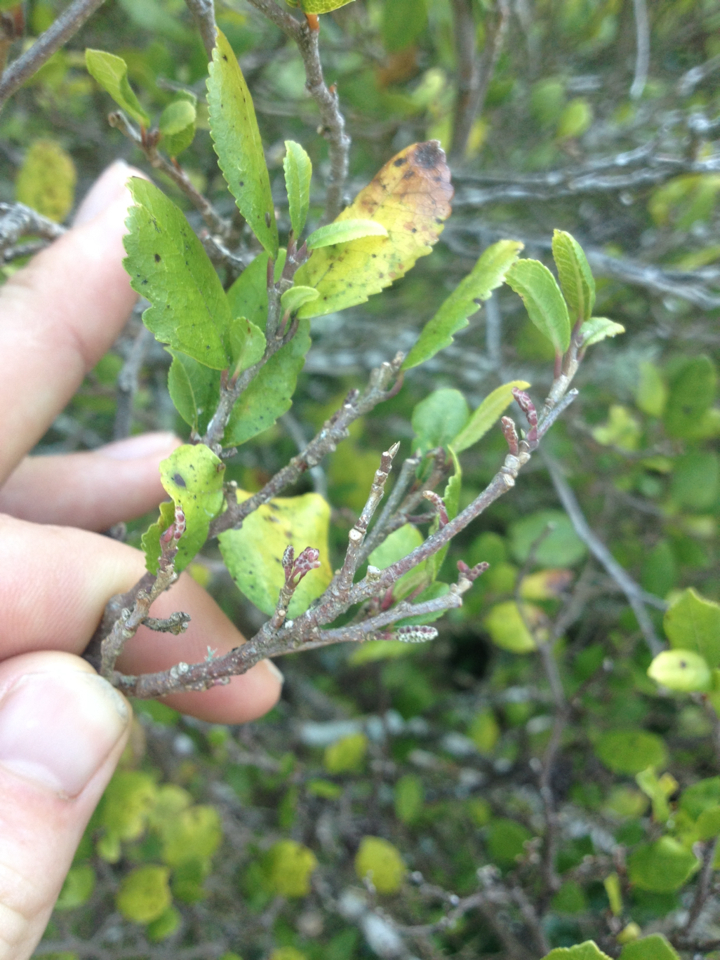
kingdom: Plantae
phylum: Tracheophyta
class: Magnoliopsida
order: Rosales
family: Moraceae
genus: Paratrophis
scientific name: Paratrophis banksii
